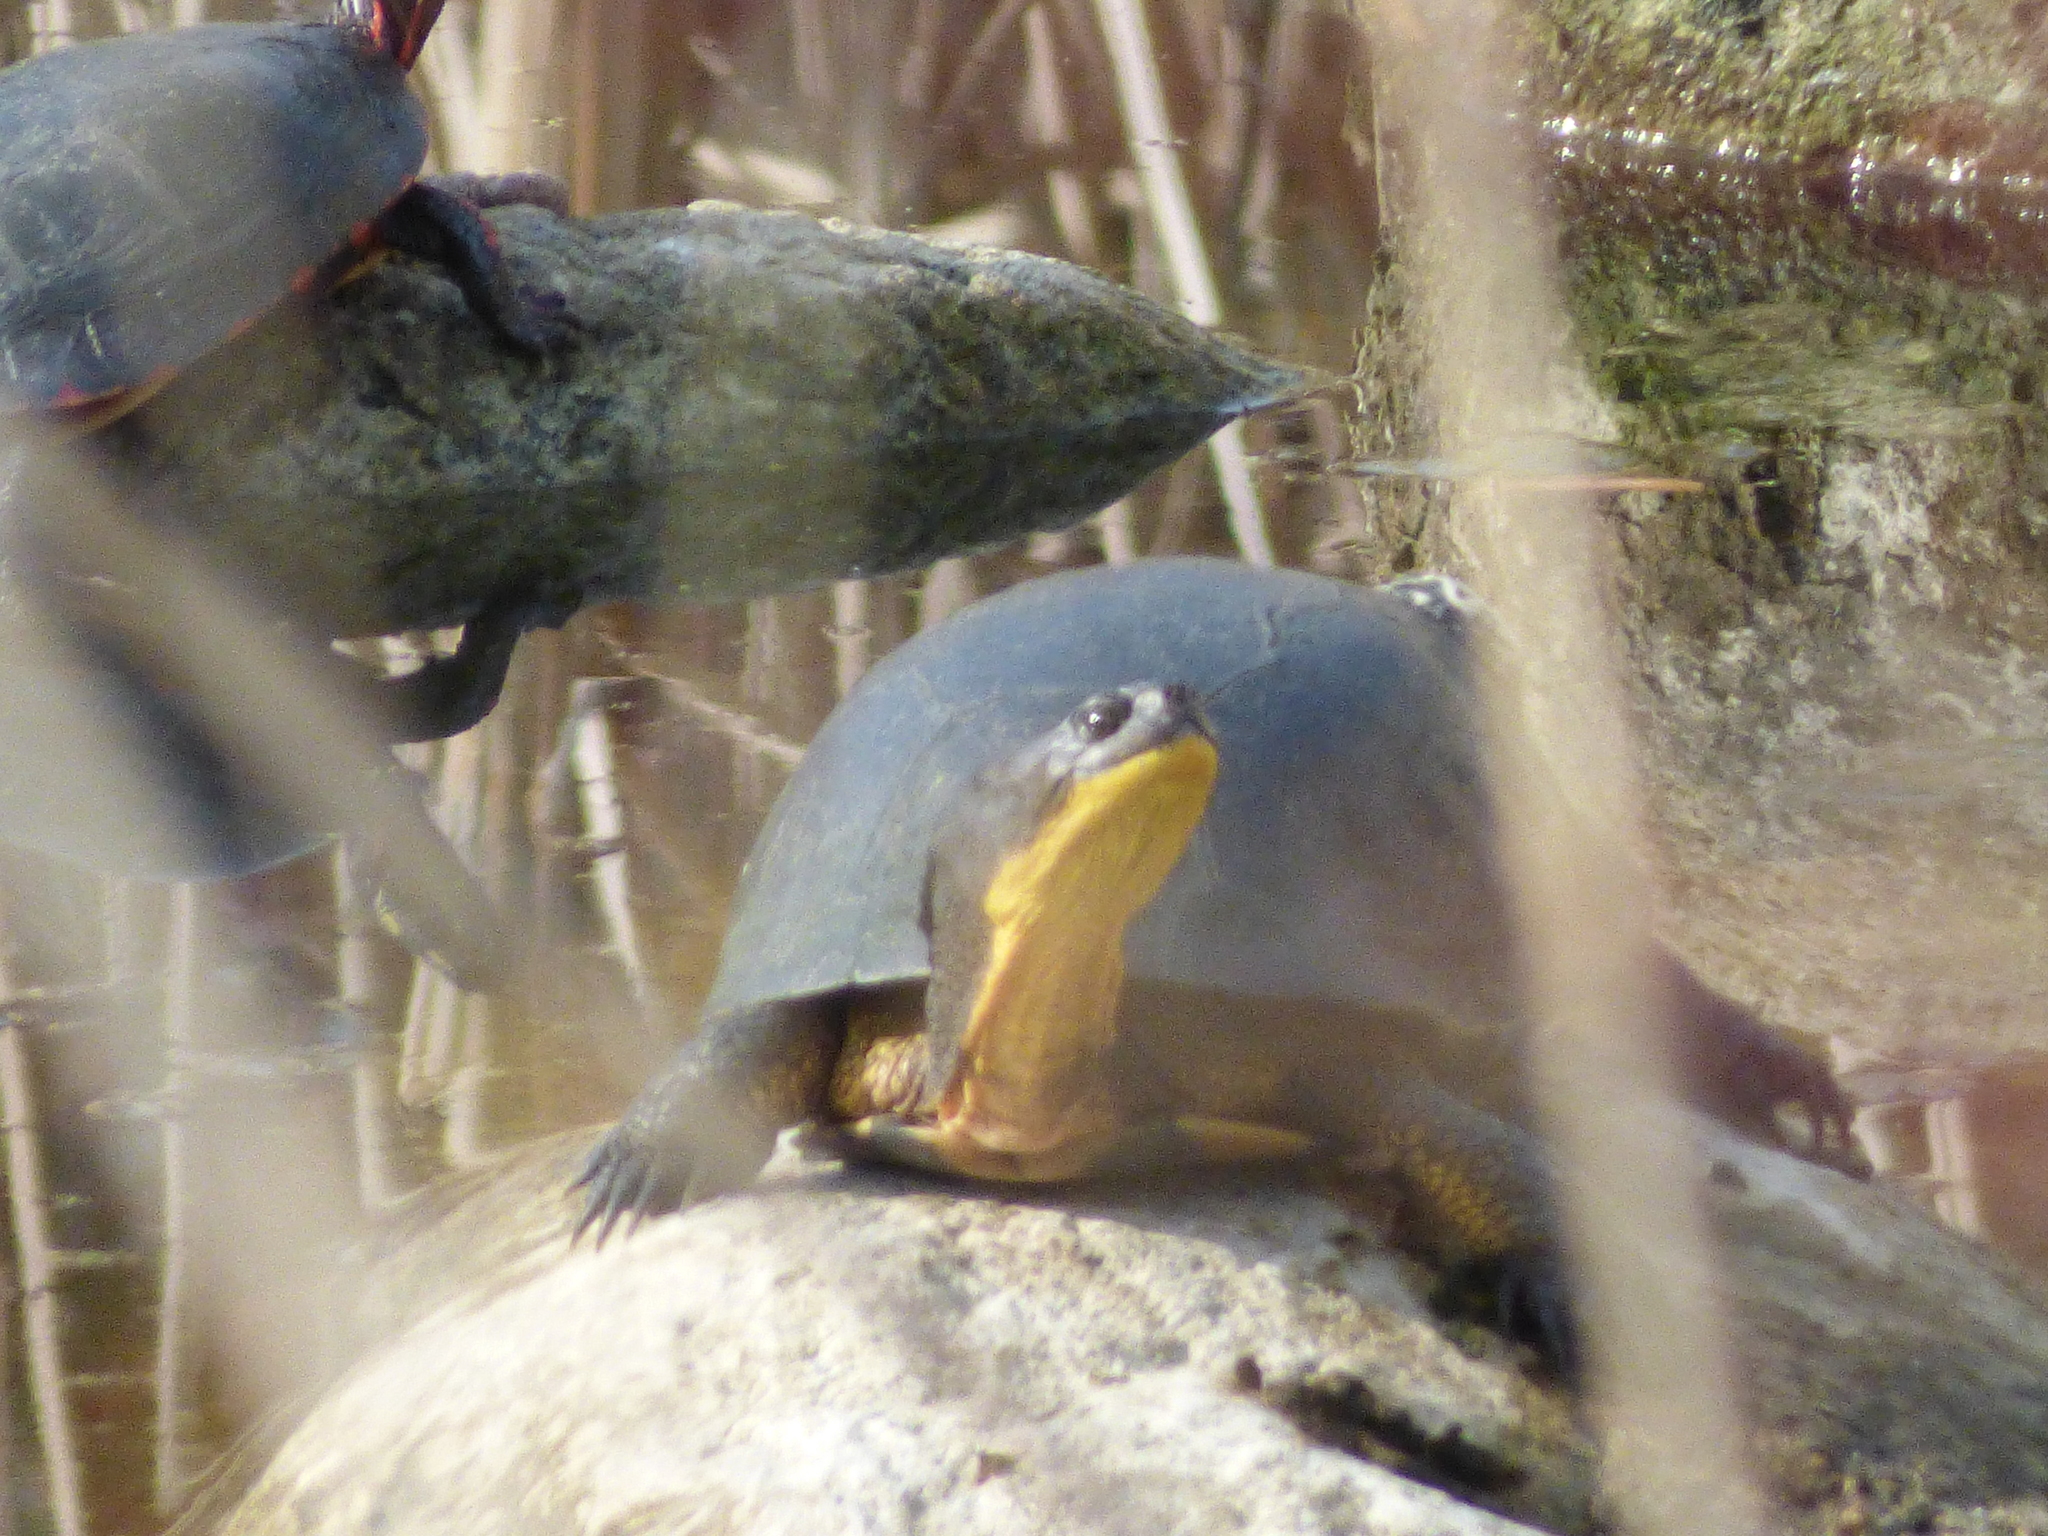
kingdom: Animalia
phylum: Chordata
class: Testudines
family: Emydidae
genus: Emys
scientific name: Emys blandingii
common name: Blanding's turtle
